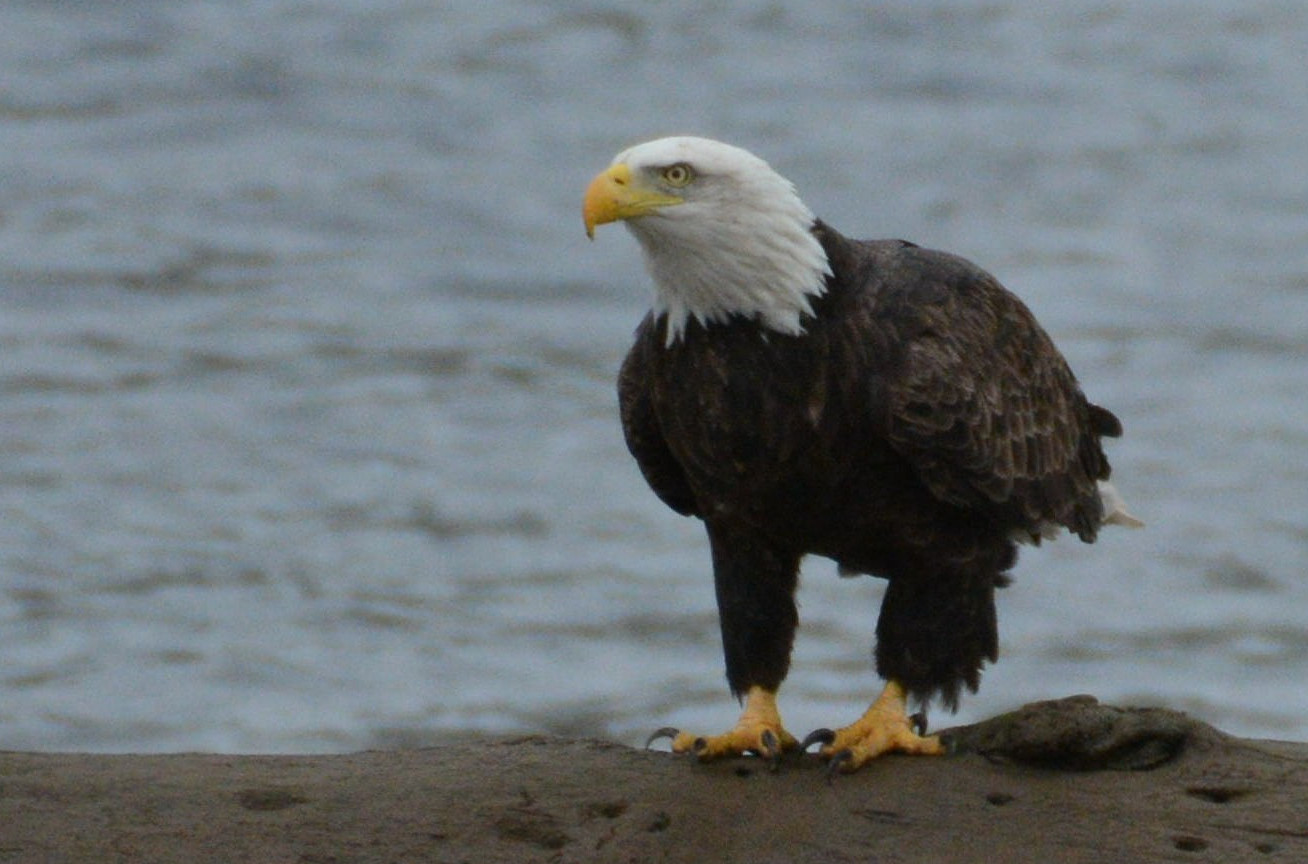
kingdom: Animalia
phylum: Chordata
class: Aves
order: Accipitriformes
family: Accipitridae
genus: Haliaeetus
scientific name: Haliaeetus leucocephalus
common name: Bald eagle
